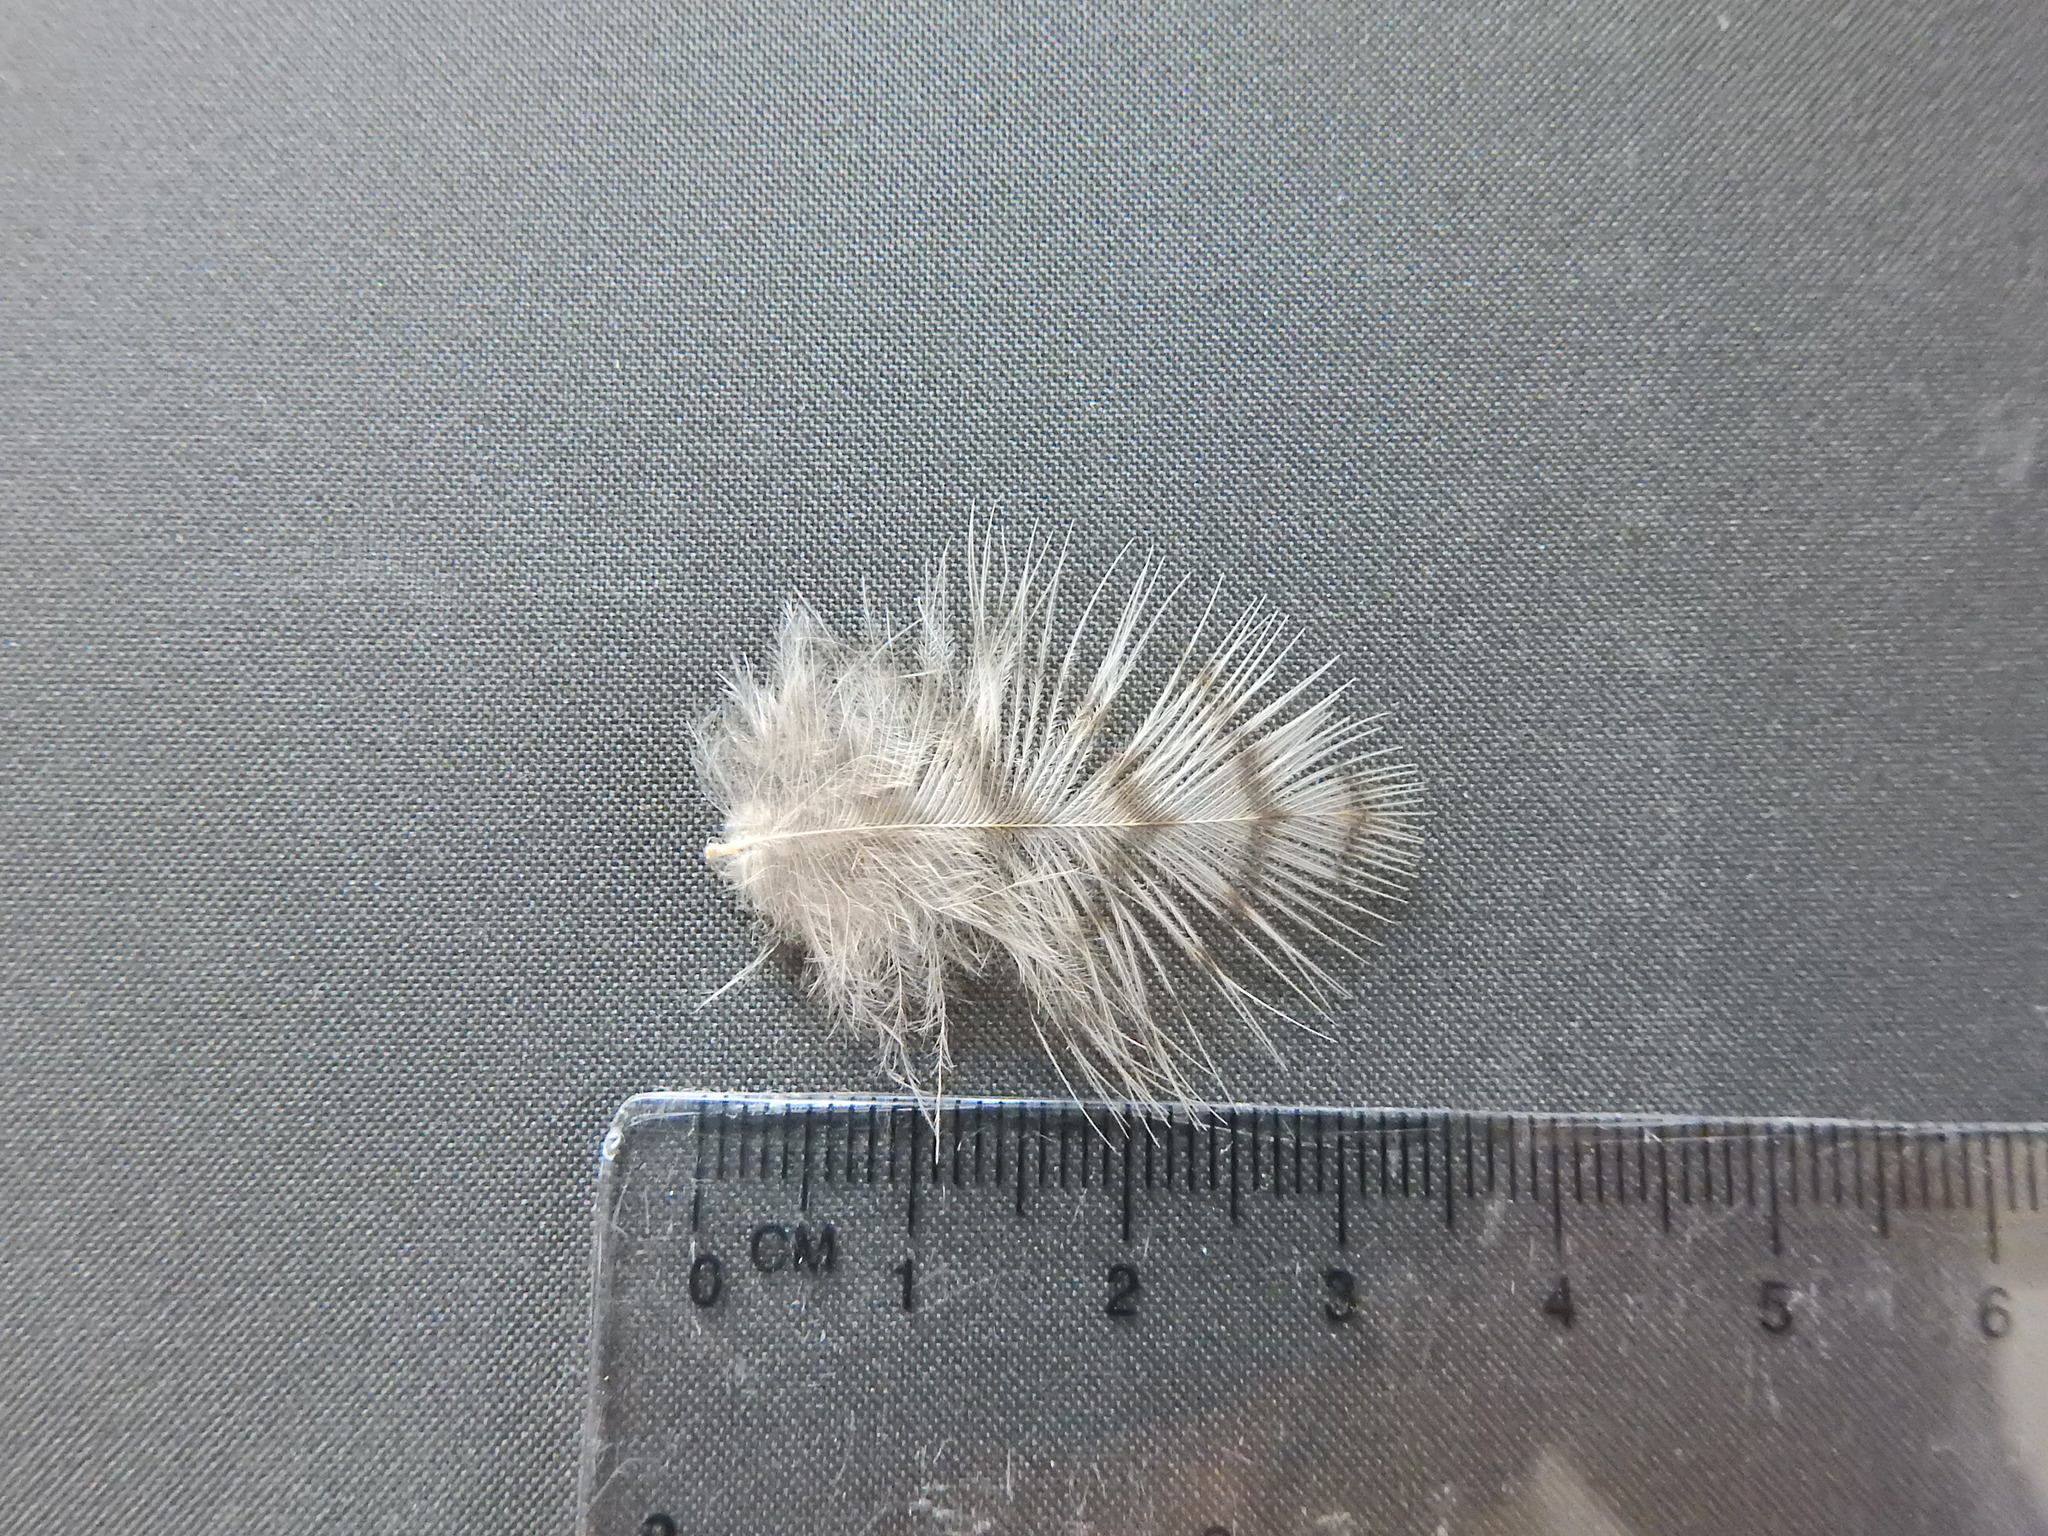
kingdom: Animalia
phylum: Chordata
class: Aves
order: Accipitriformes
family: Accipitridae
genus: Accipiter
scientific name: Accipiter nisus
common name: Eurasian sparrowhawk
